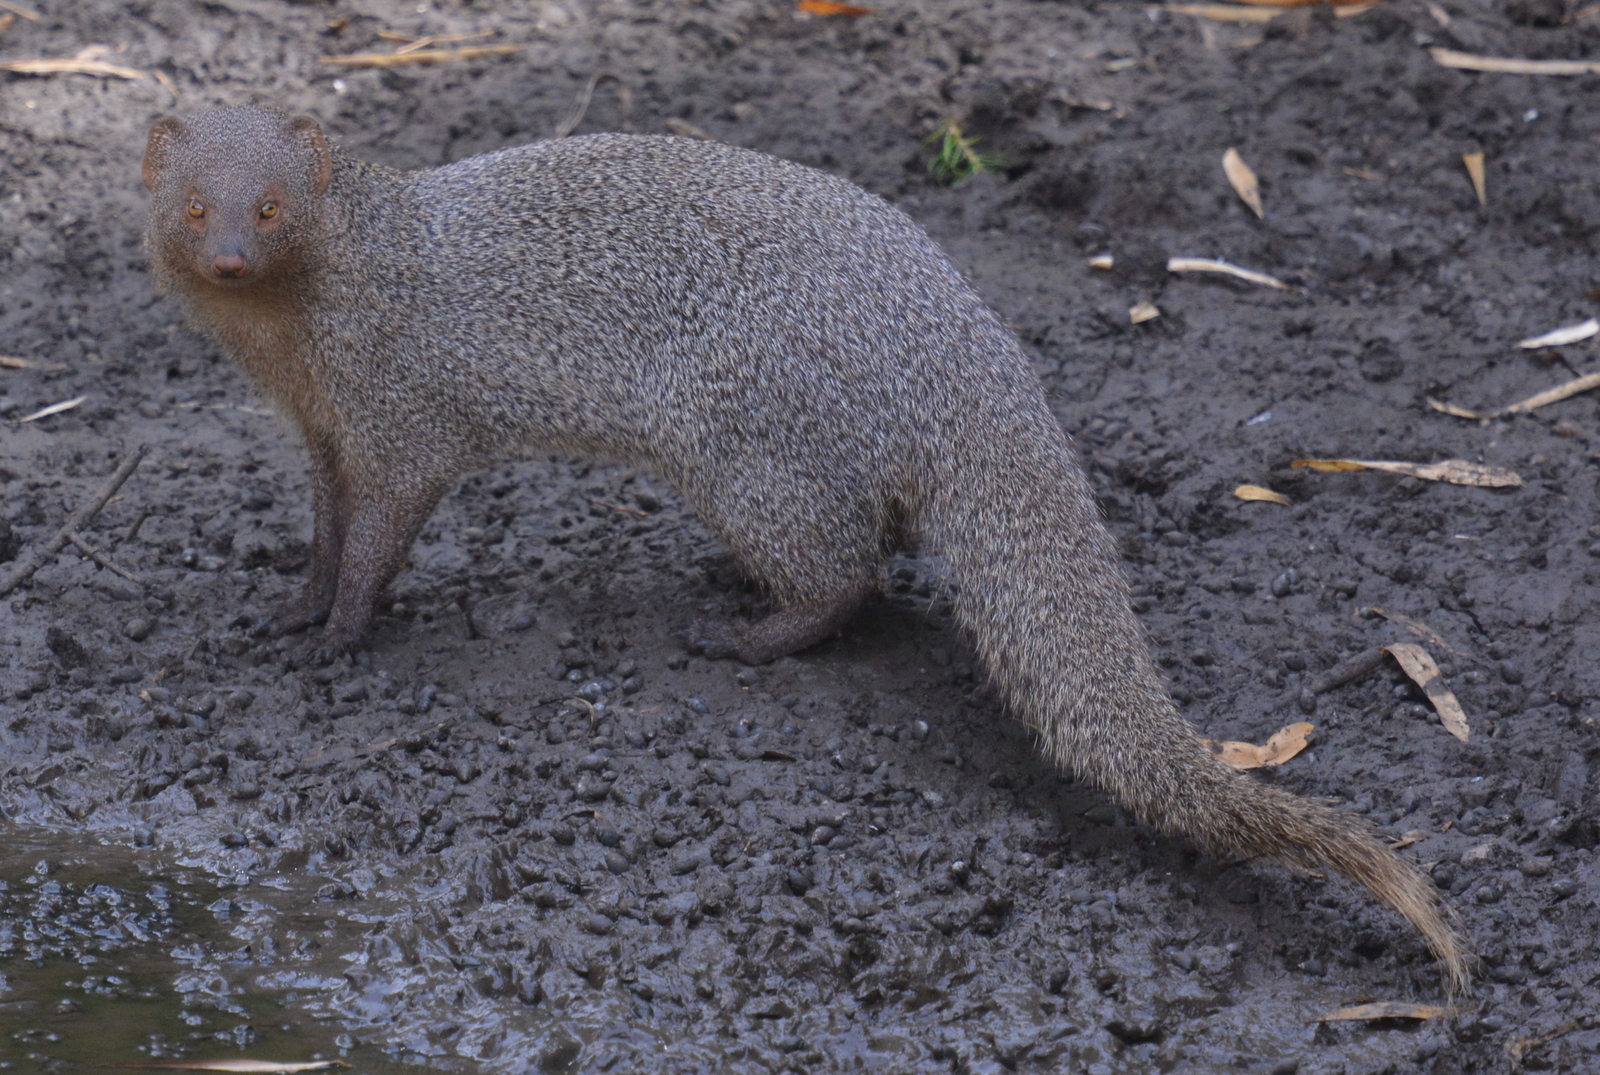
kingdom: Animalia
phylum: Chordata
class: Mammalia
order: Carnivora
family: Herpestidae
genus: Herpestes
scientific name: Herpestes edwardsi
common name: Indian gray mongoose
